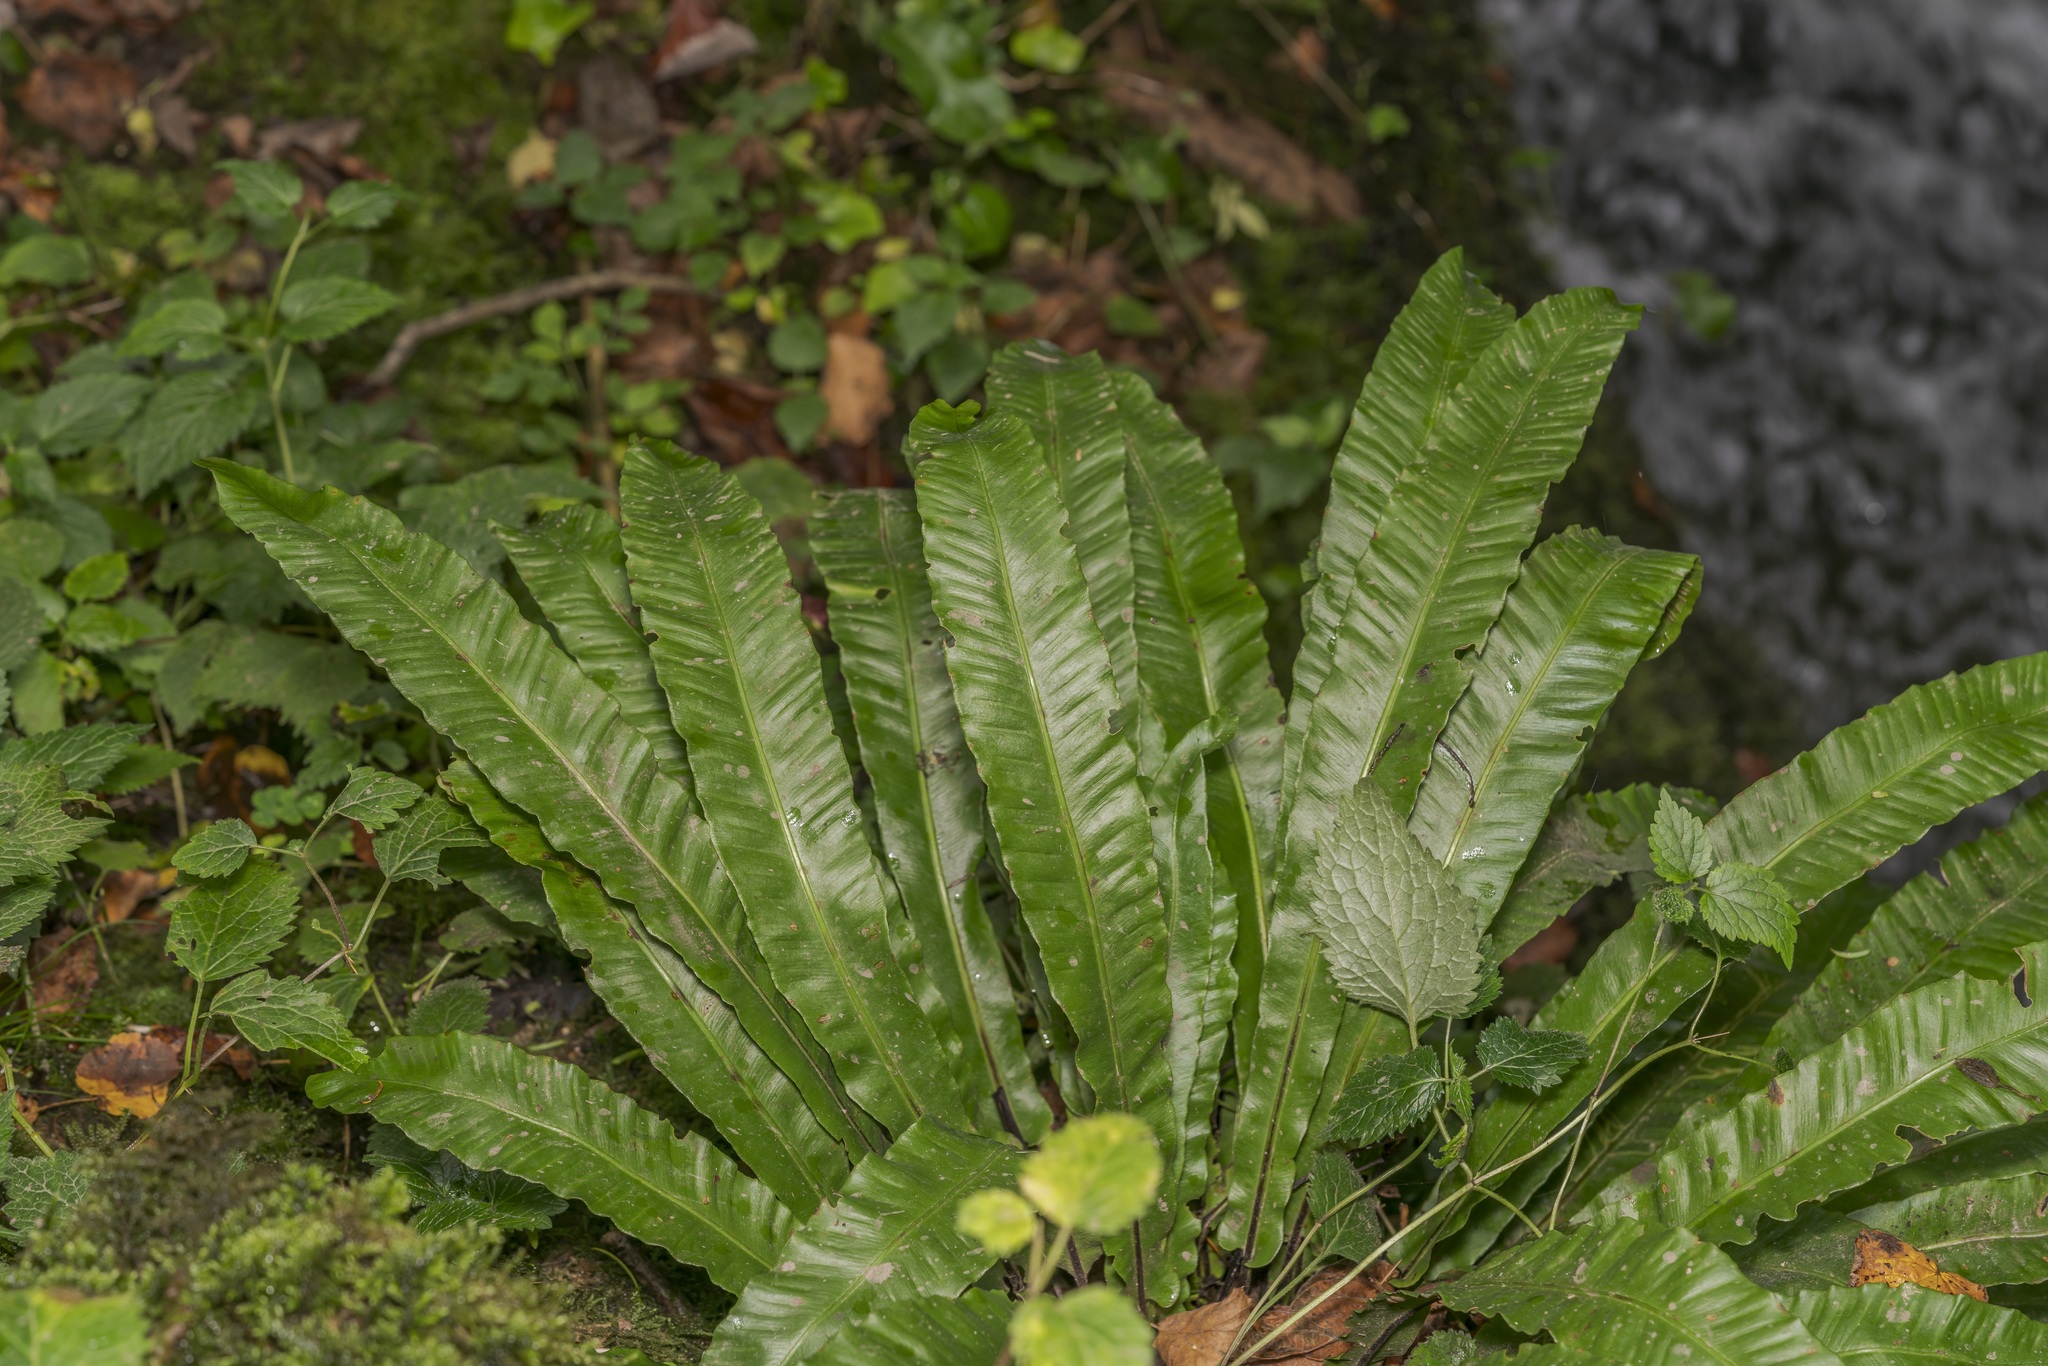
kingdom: Plantae
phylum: Tracheophyta
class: Polypodiopsida
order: Polypodiales
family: Aspleniaceae
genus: Asplenium
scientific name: Asplenium scolopendrium
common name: Hart's-tongue fern
